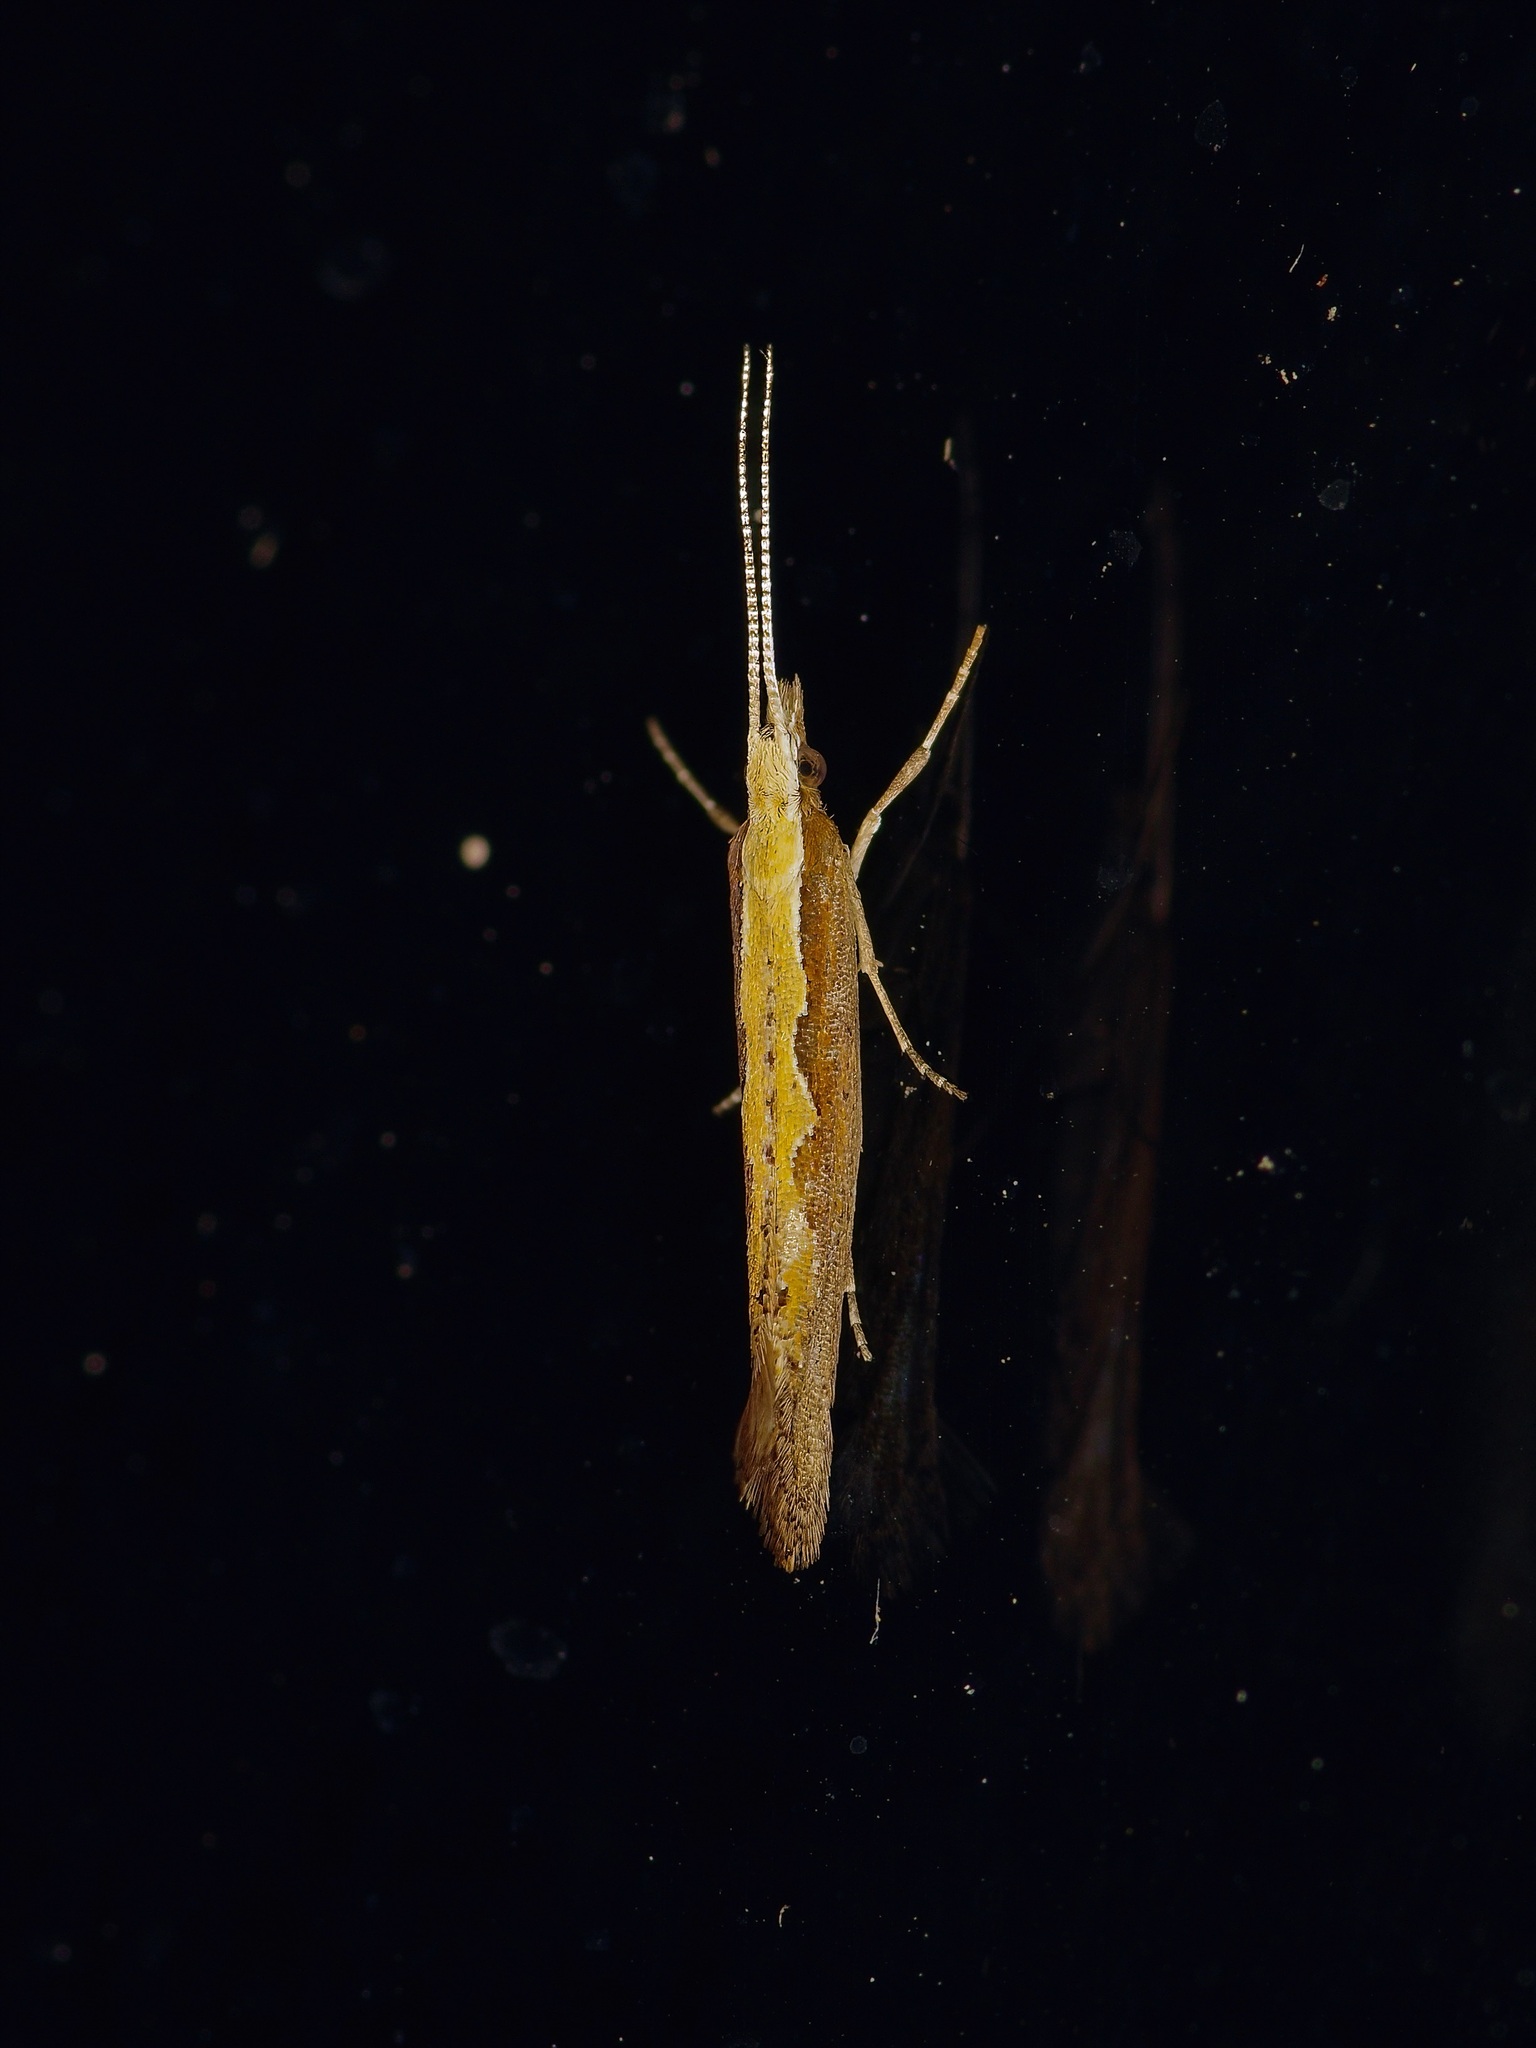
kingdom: Animalia
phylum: Arthropoda
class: Insecta
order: Lepidoptera
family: Plutellidae
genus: Plutella
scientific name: Plutella xylostella
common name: Diamond-back moth
